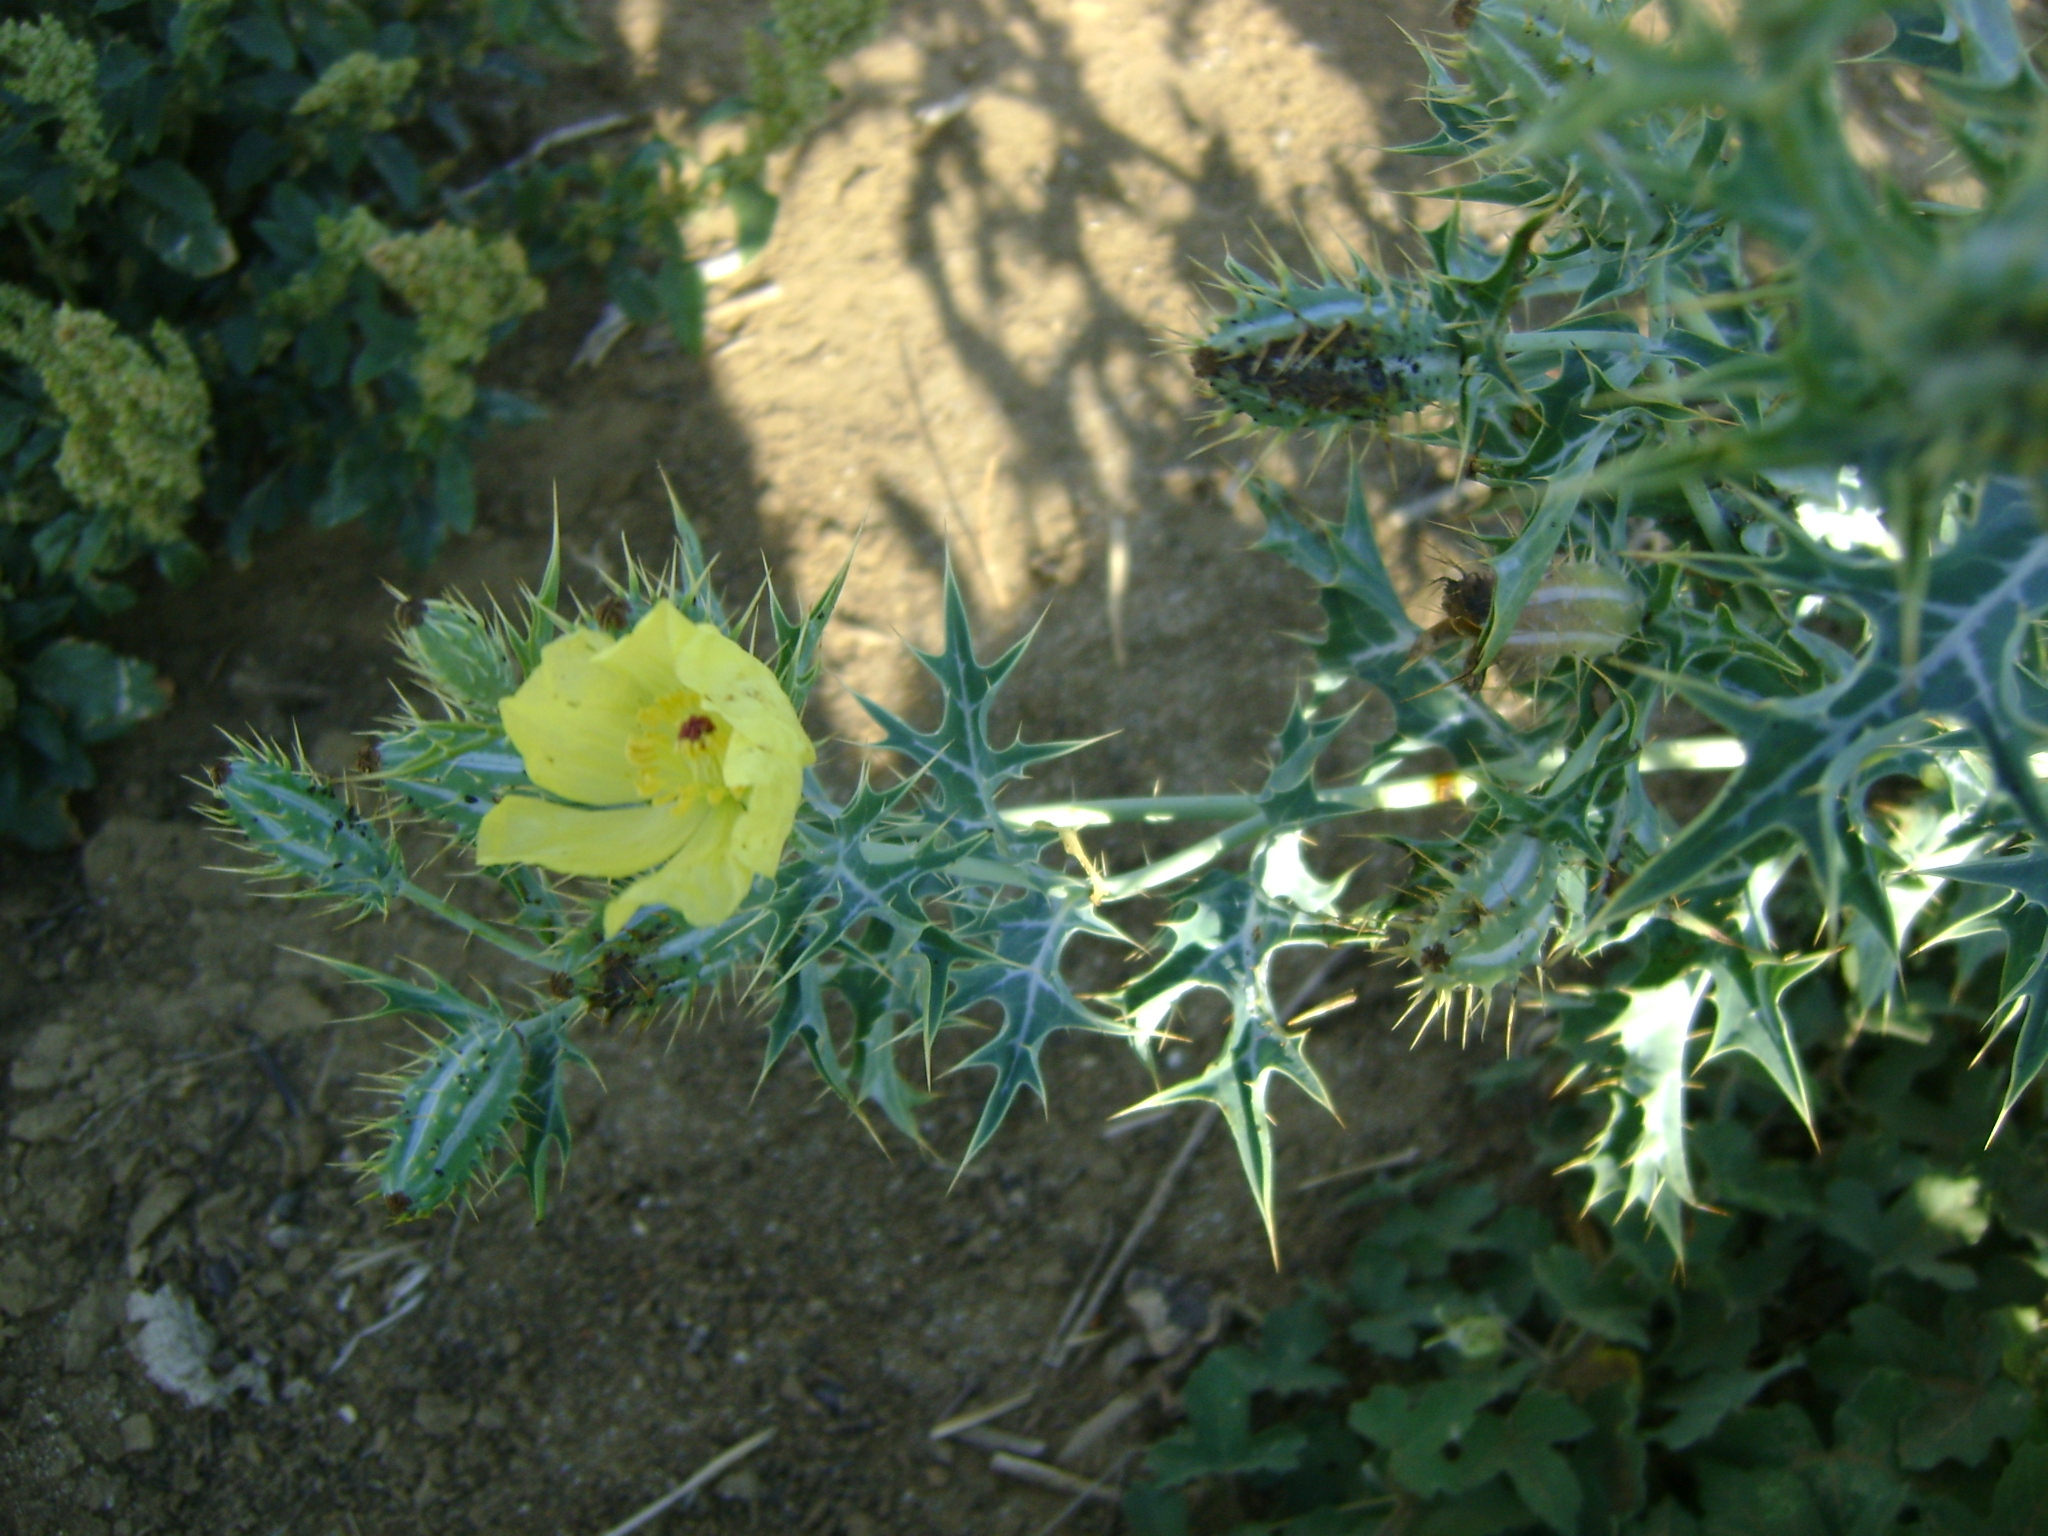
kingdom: Plantae
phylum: Tracheophyta
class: Magnoliopsida
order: Ranunculales
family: Papaveraceae
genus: Argemone
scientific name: Argemone ochroleuca
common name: White-flower mexican-poppy
